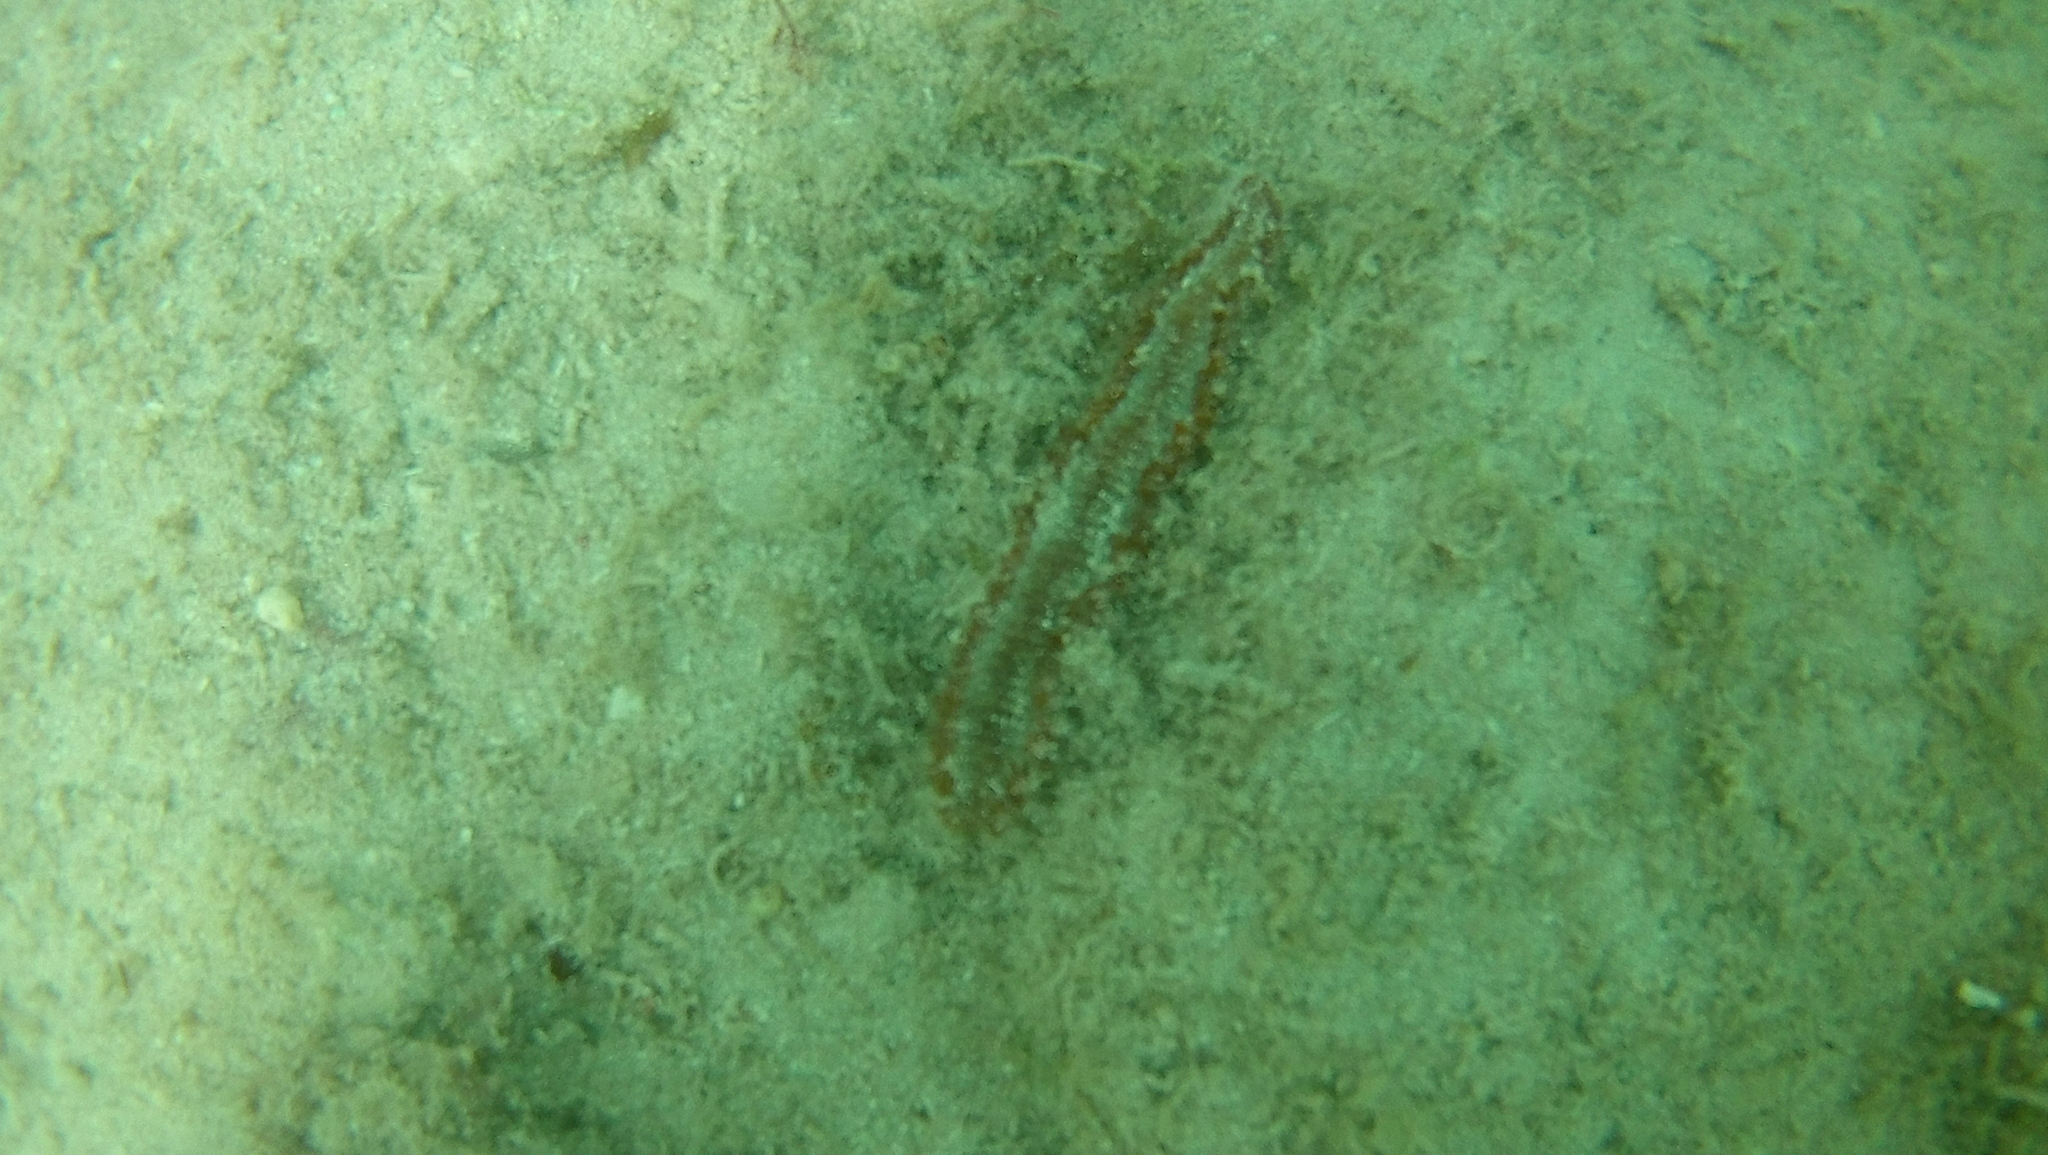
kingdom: Animalia
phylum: Annelida
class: Polychaeta
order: Amphinomida
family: Amphinomidae
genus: Hermodice
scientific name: Hermodice carunculata
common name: Bearded fireworm
